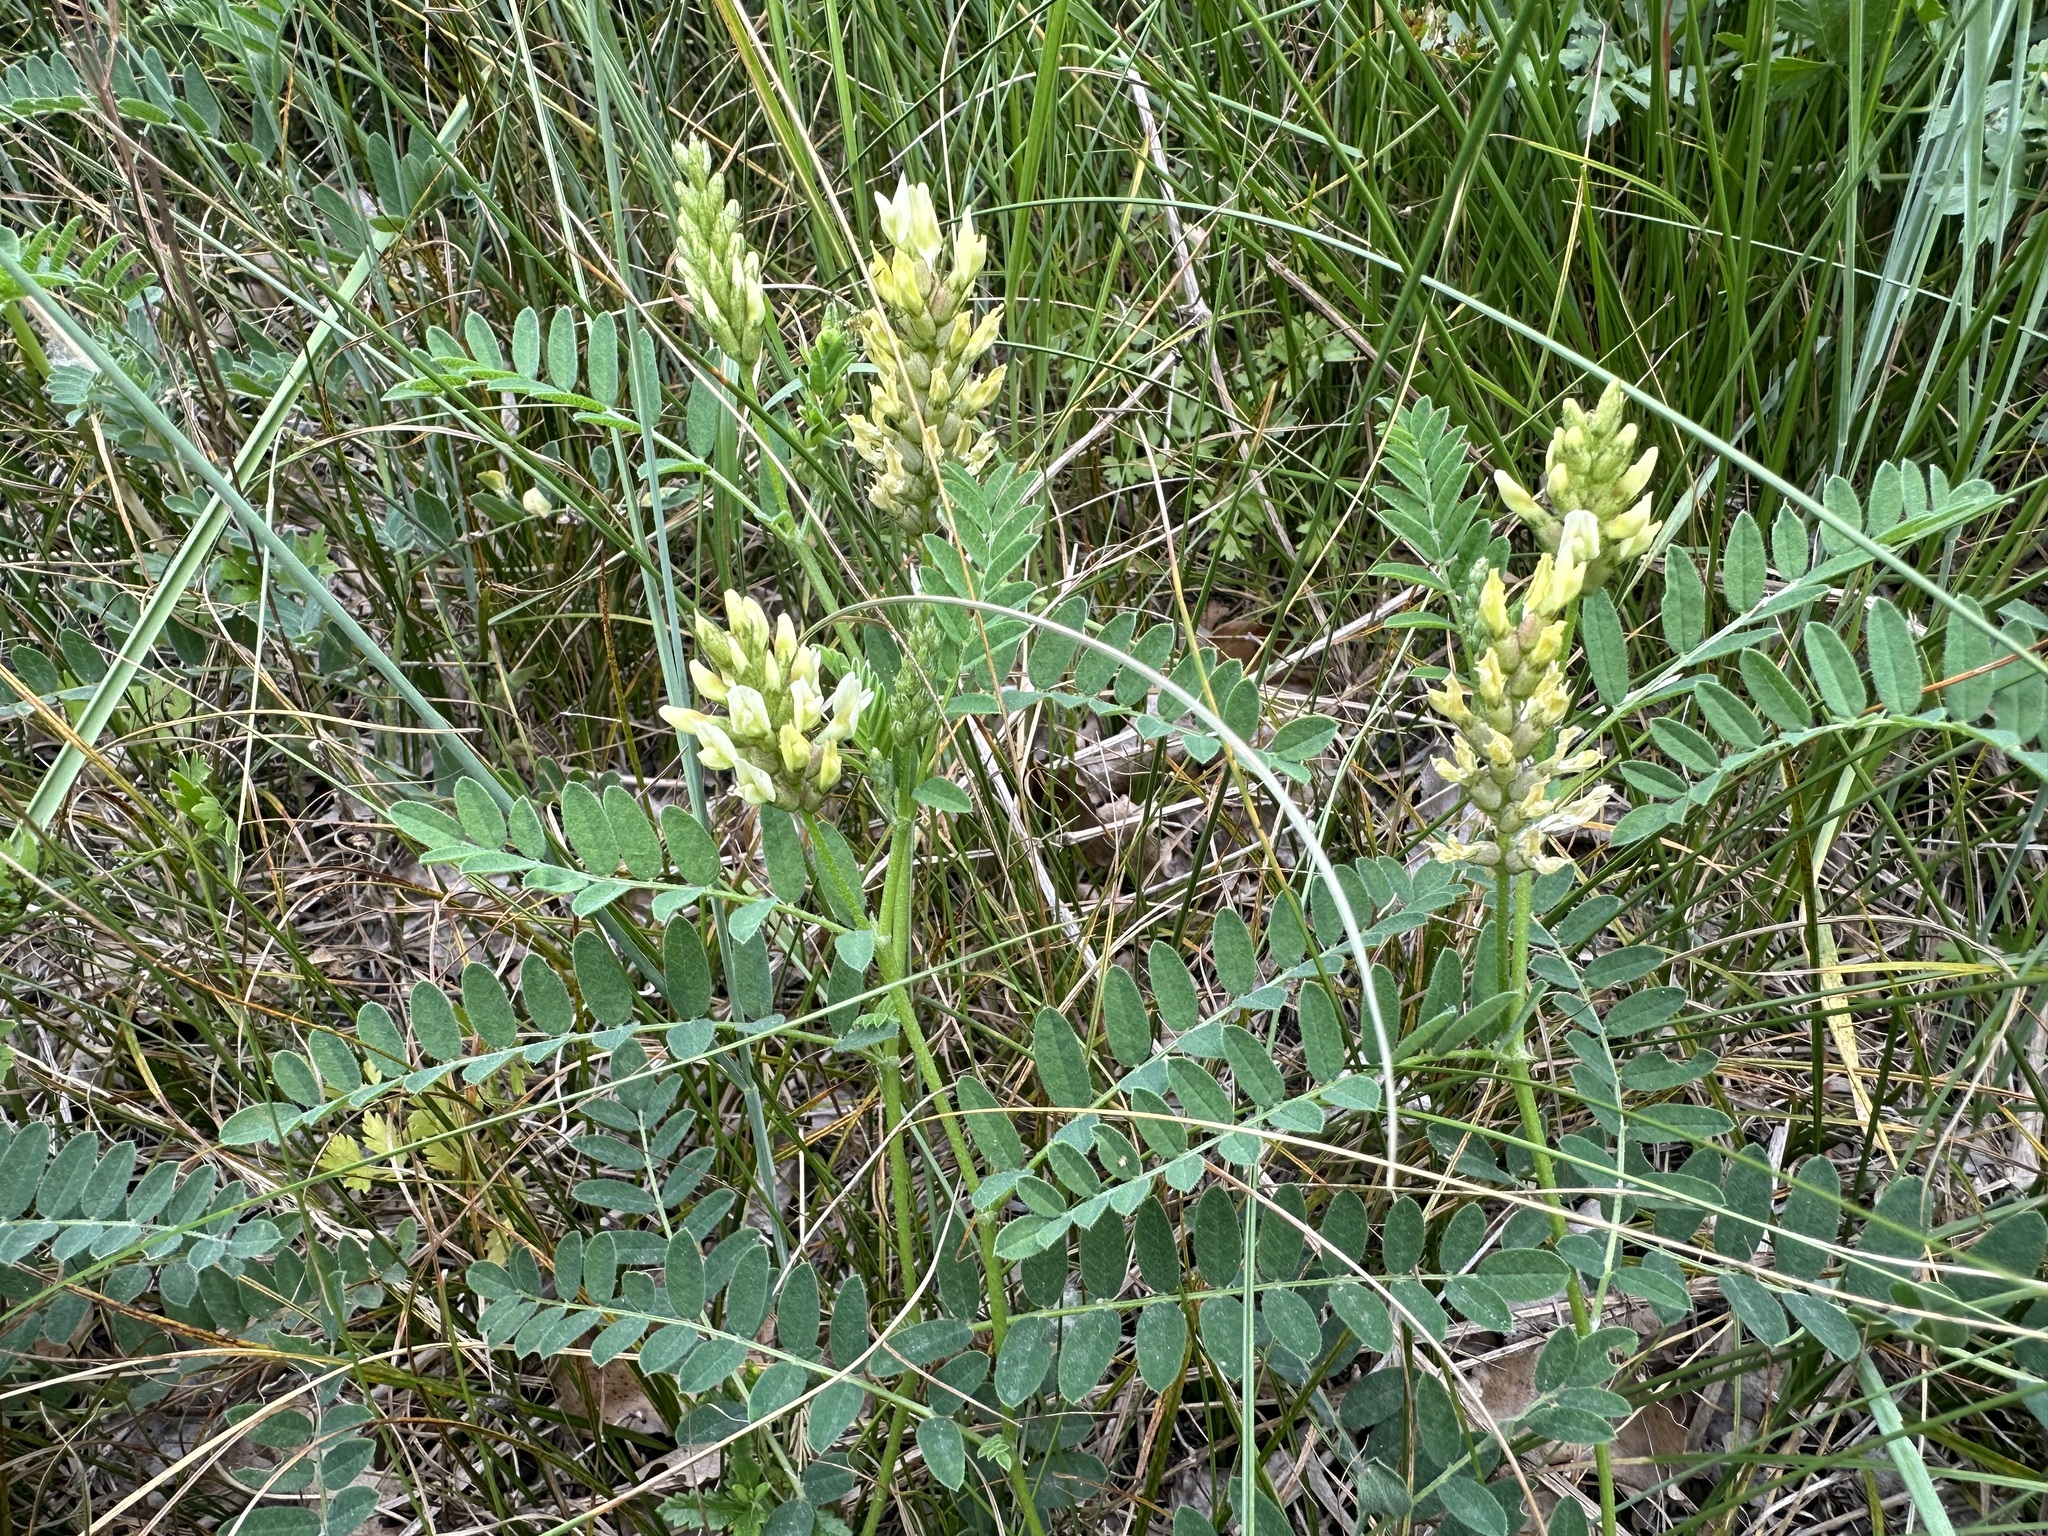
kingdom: Plantae
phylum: Tracheophyta
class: Magnoliopsida
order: Fabales
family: Fabaceae
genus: Astragalus
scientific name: Astragalus cicer
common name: Chick-pea milk-vetch
